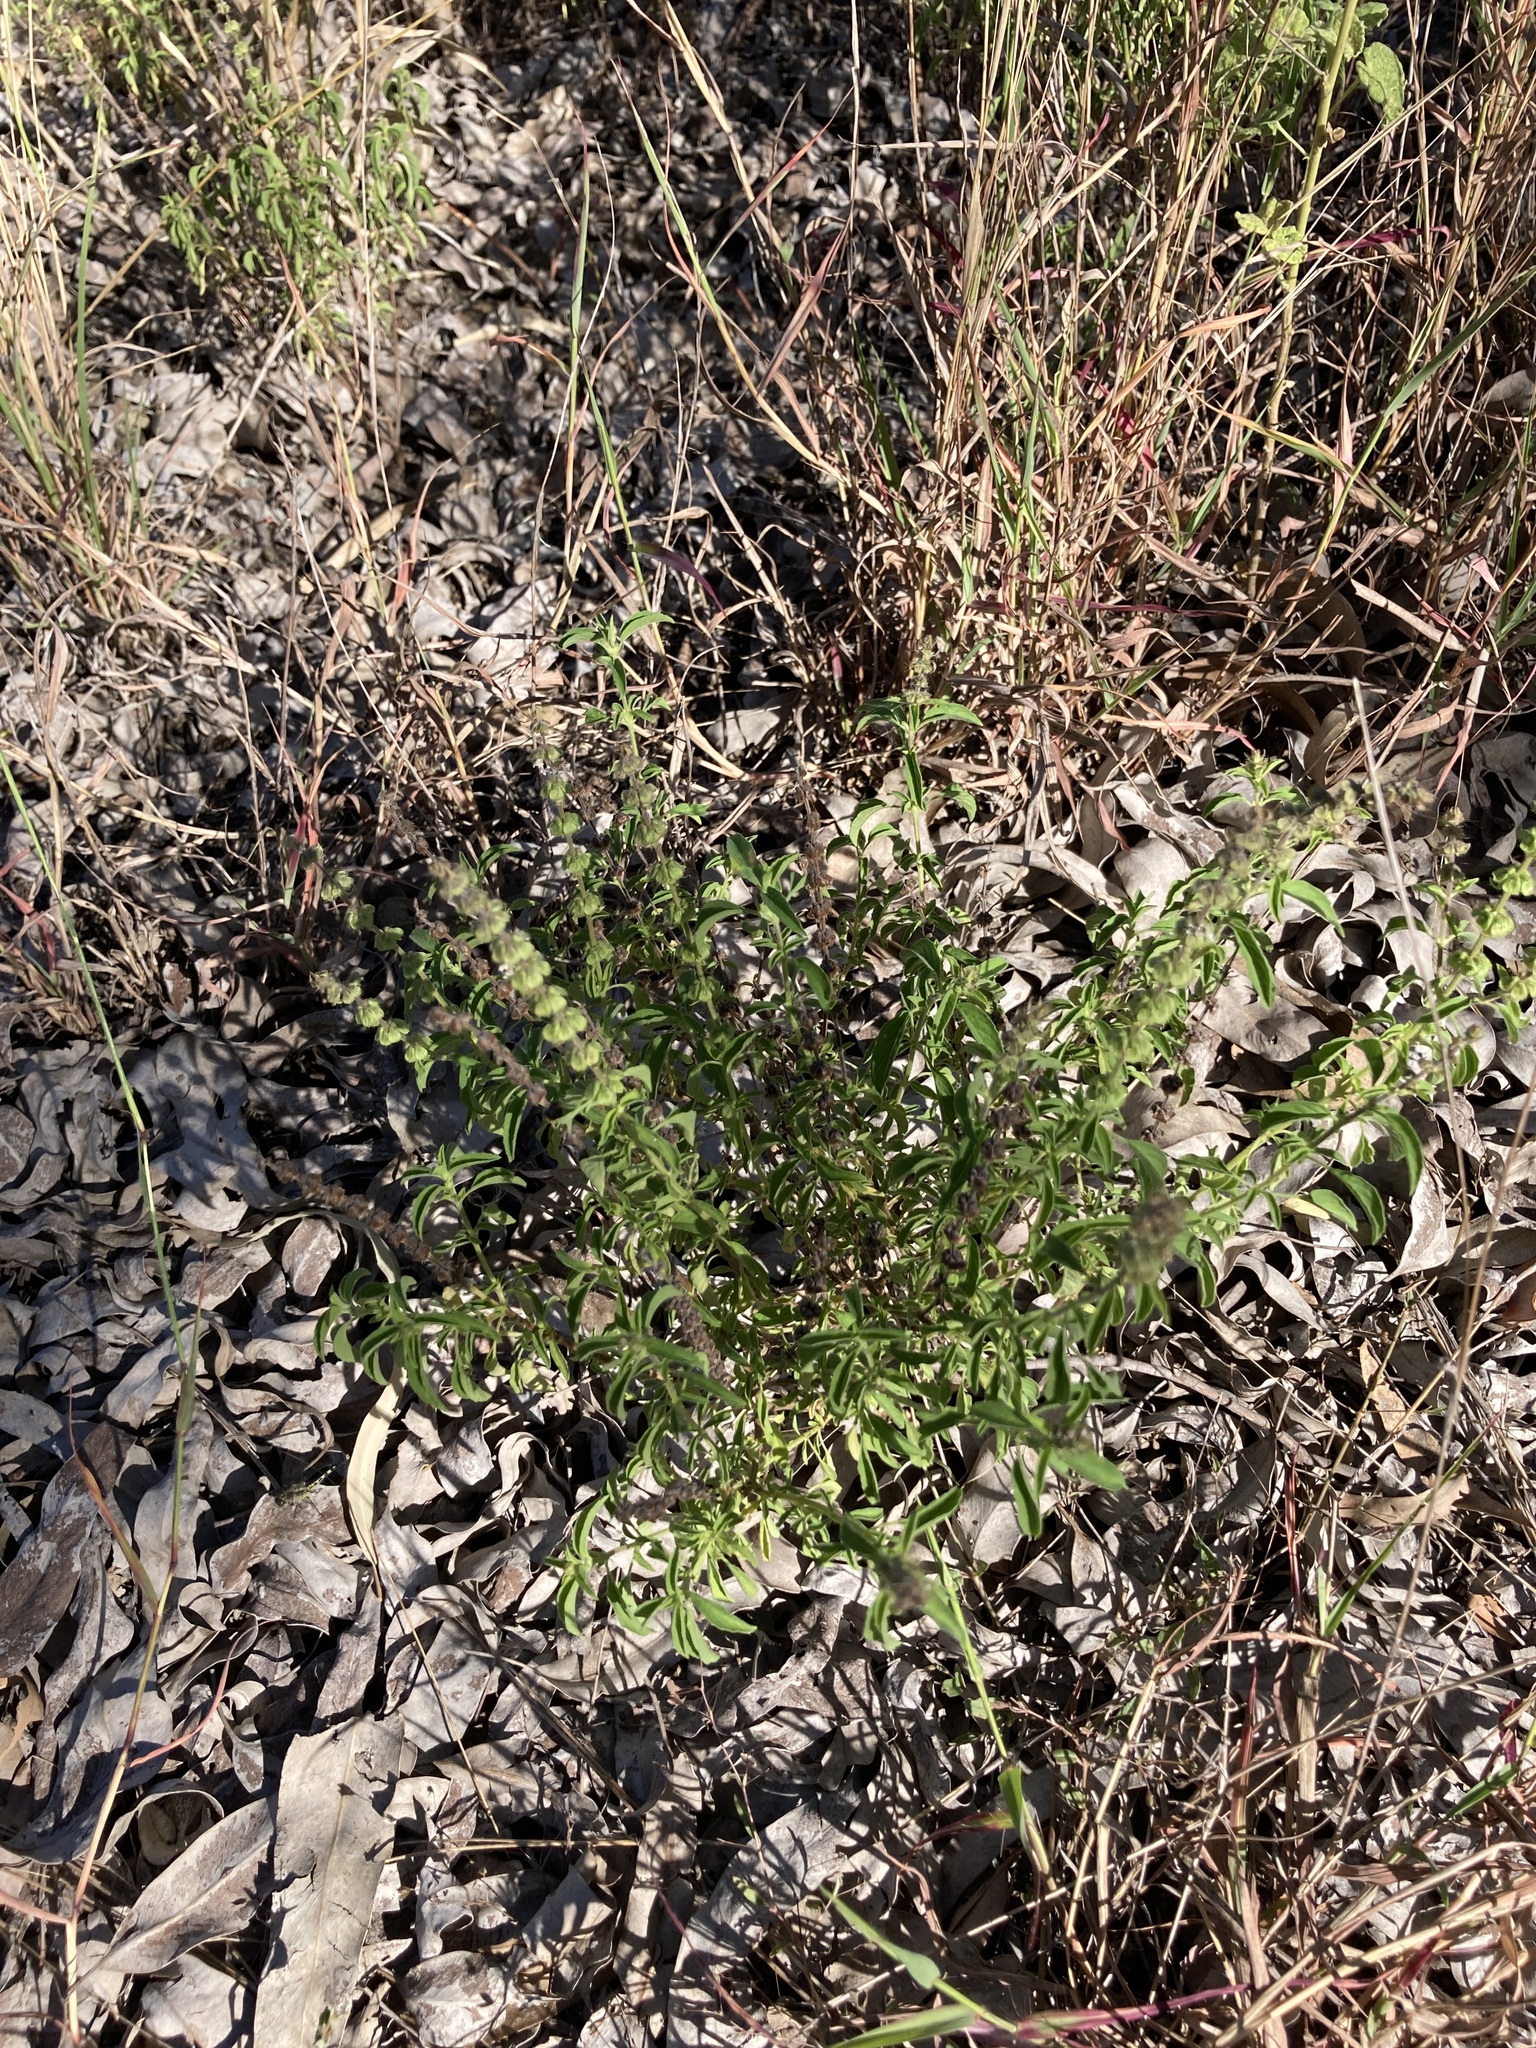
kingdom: Plantae
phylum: Tracheophyta
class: Magnoliopsida
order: Lamiales
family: Lamiaceae
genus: Ocimum
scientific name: Ocimum americanum
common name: American basil
